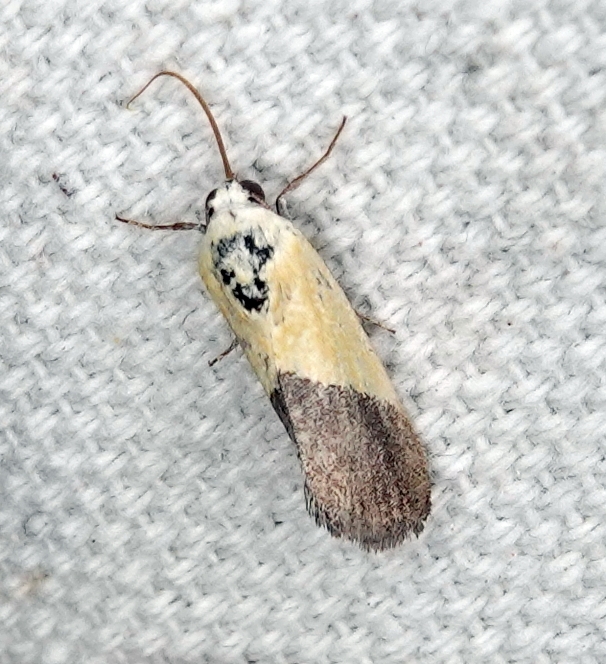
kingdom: Animalia
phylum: Arthropoda
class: Insecta
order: Lepidoptera
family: Noctuidae
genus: Acontia
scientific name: Acontia semiflava
